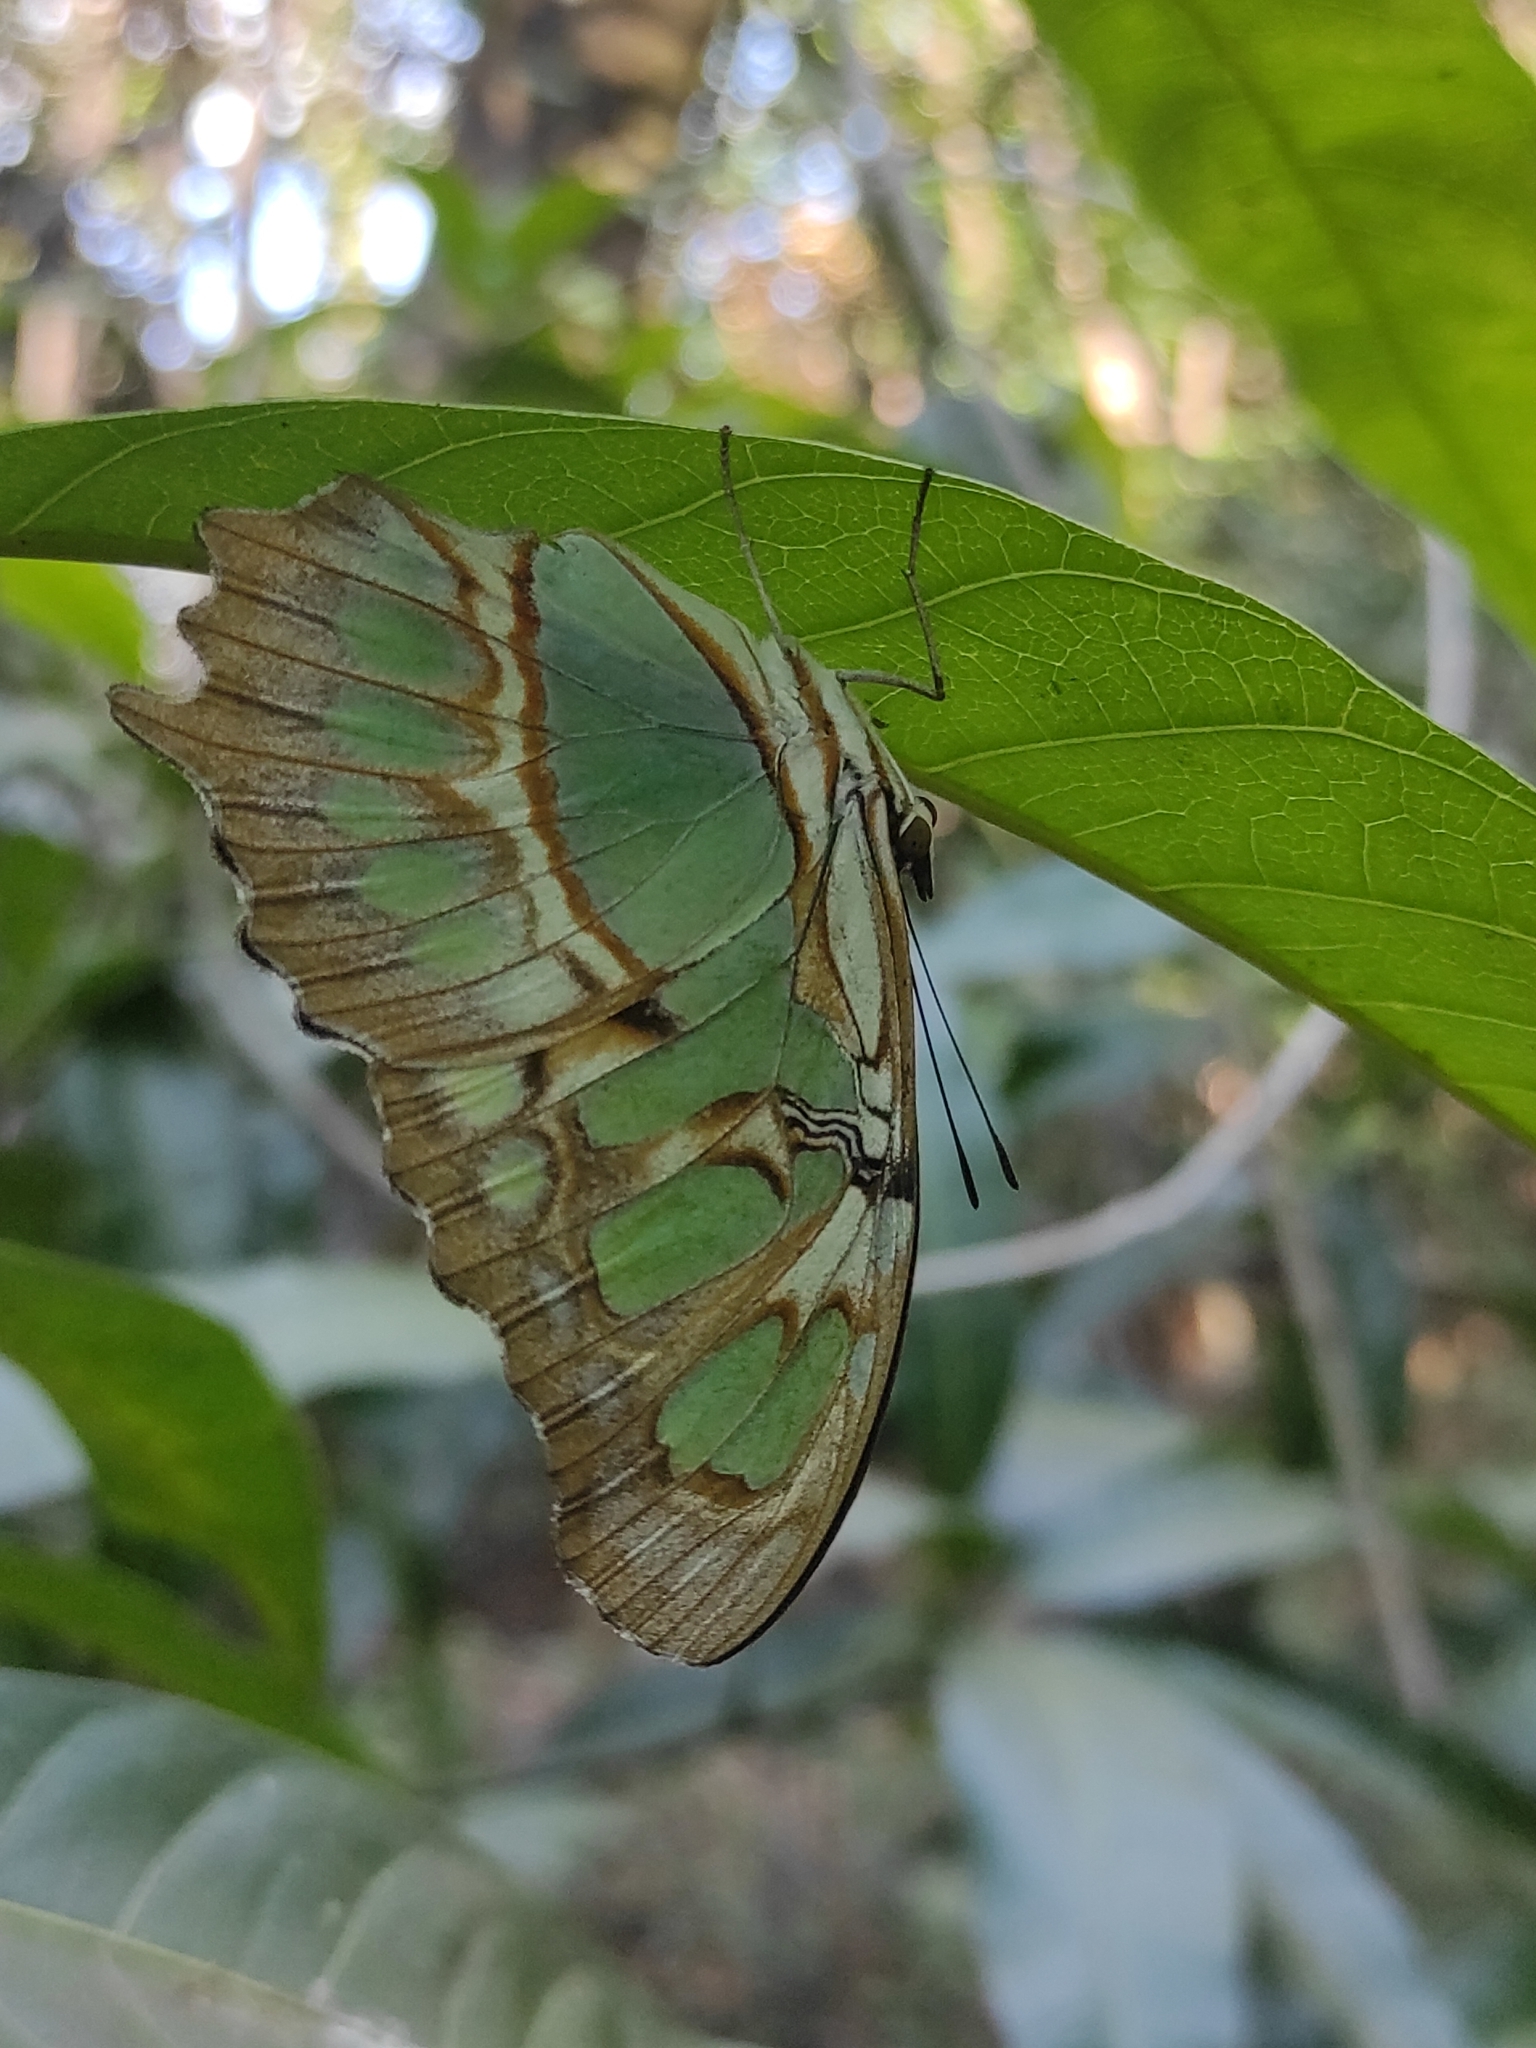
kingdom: Animalia
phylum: Arthropoda
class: Insecta
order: Lepidoptera
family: Nymphalidae
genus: Siproeta
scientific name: Siproeta stelenes
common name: Malachite
